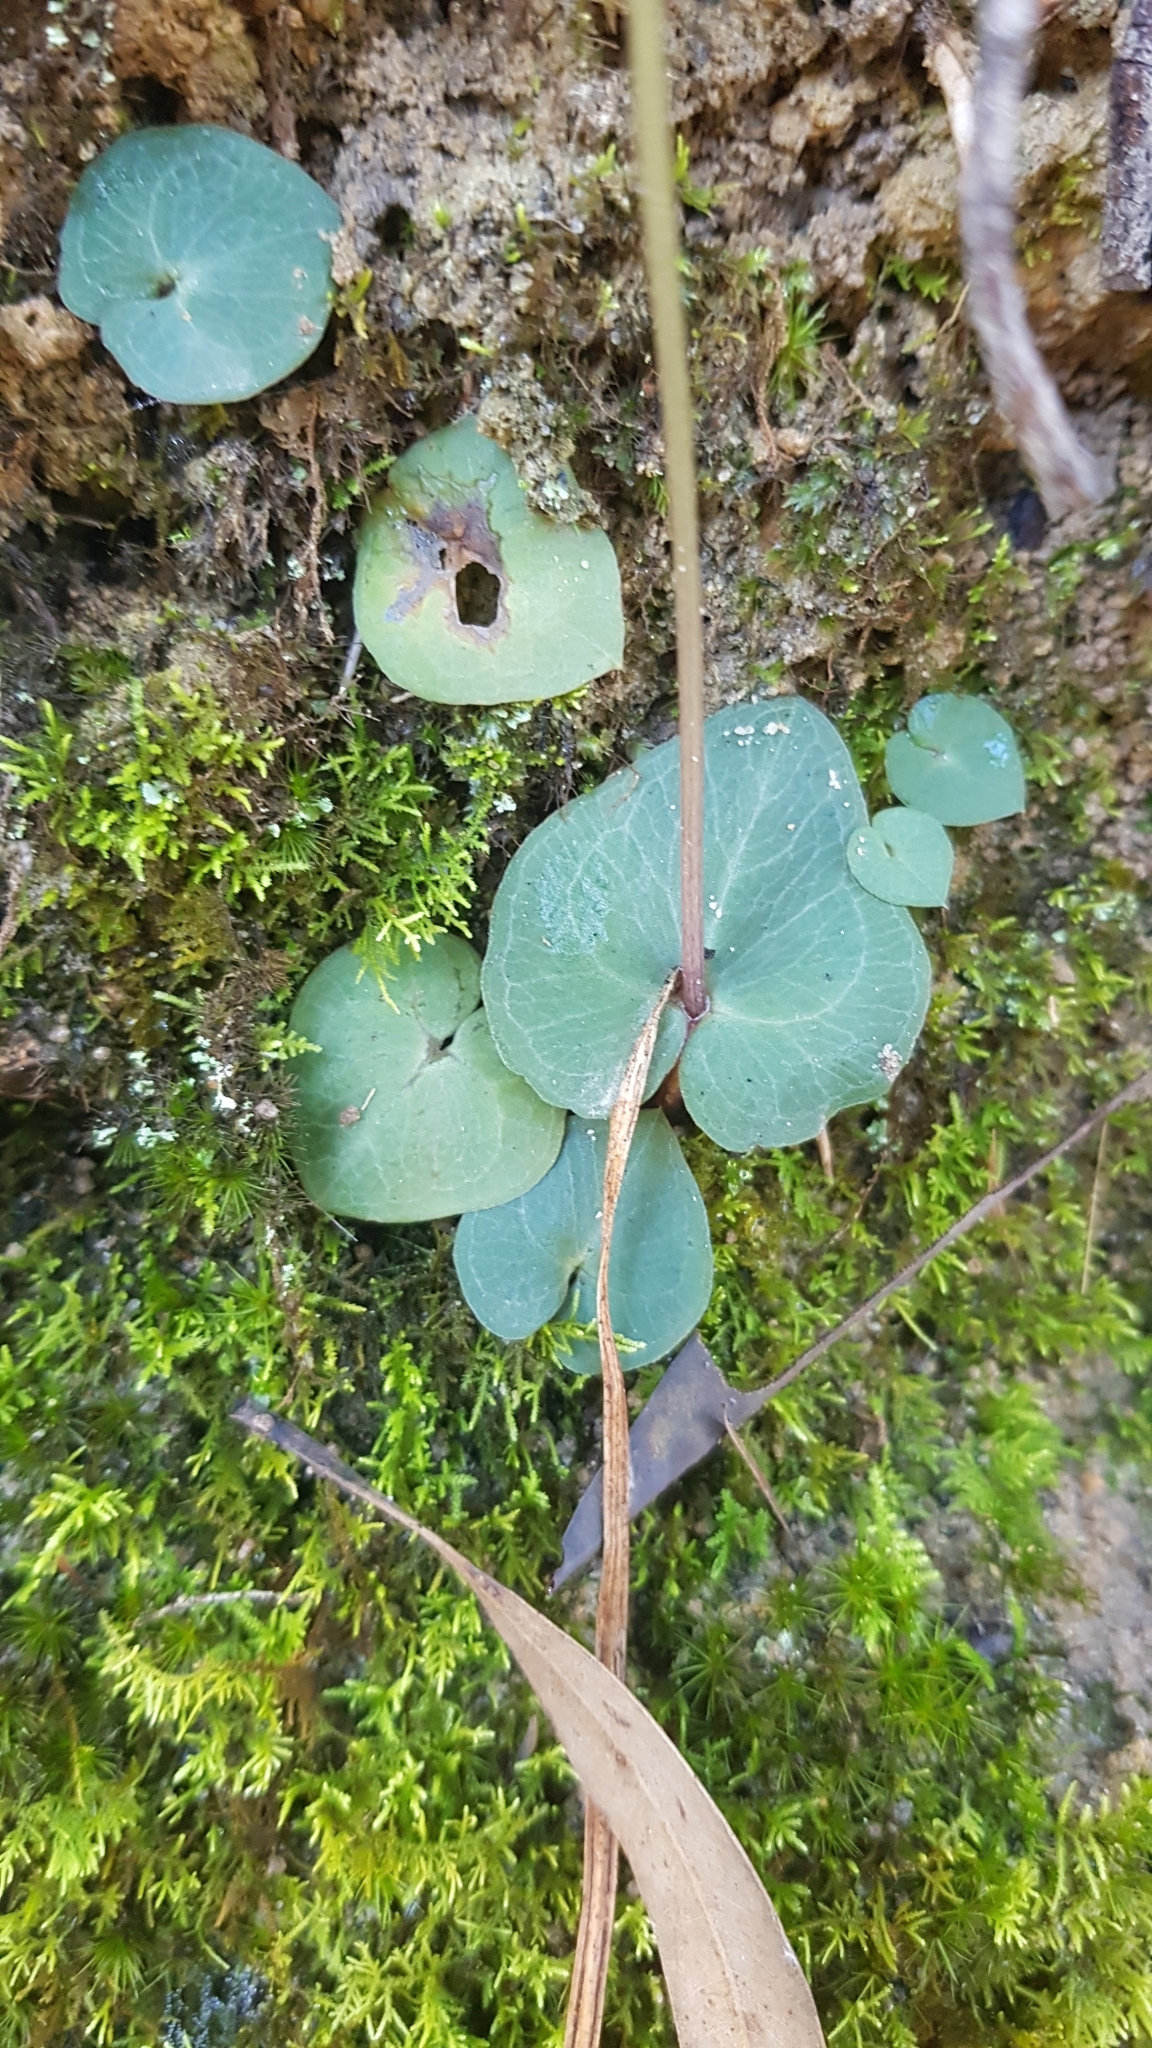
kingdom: Plantae
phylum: Tracheophyta
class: Liliopsida
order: Asparagales
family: Orchidaceae
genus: Acianthus
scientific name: Acianthus fornicatus
